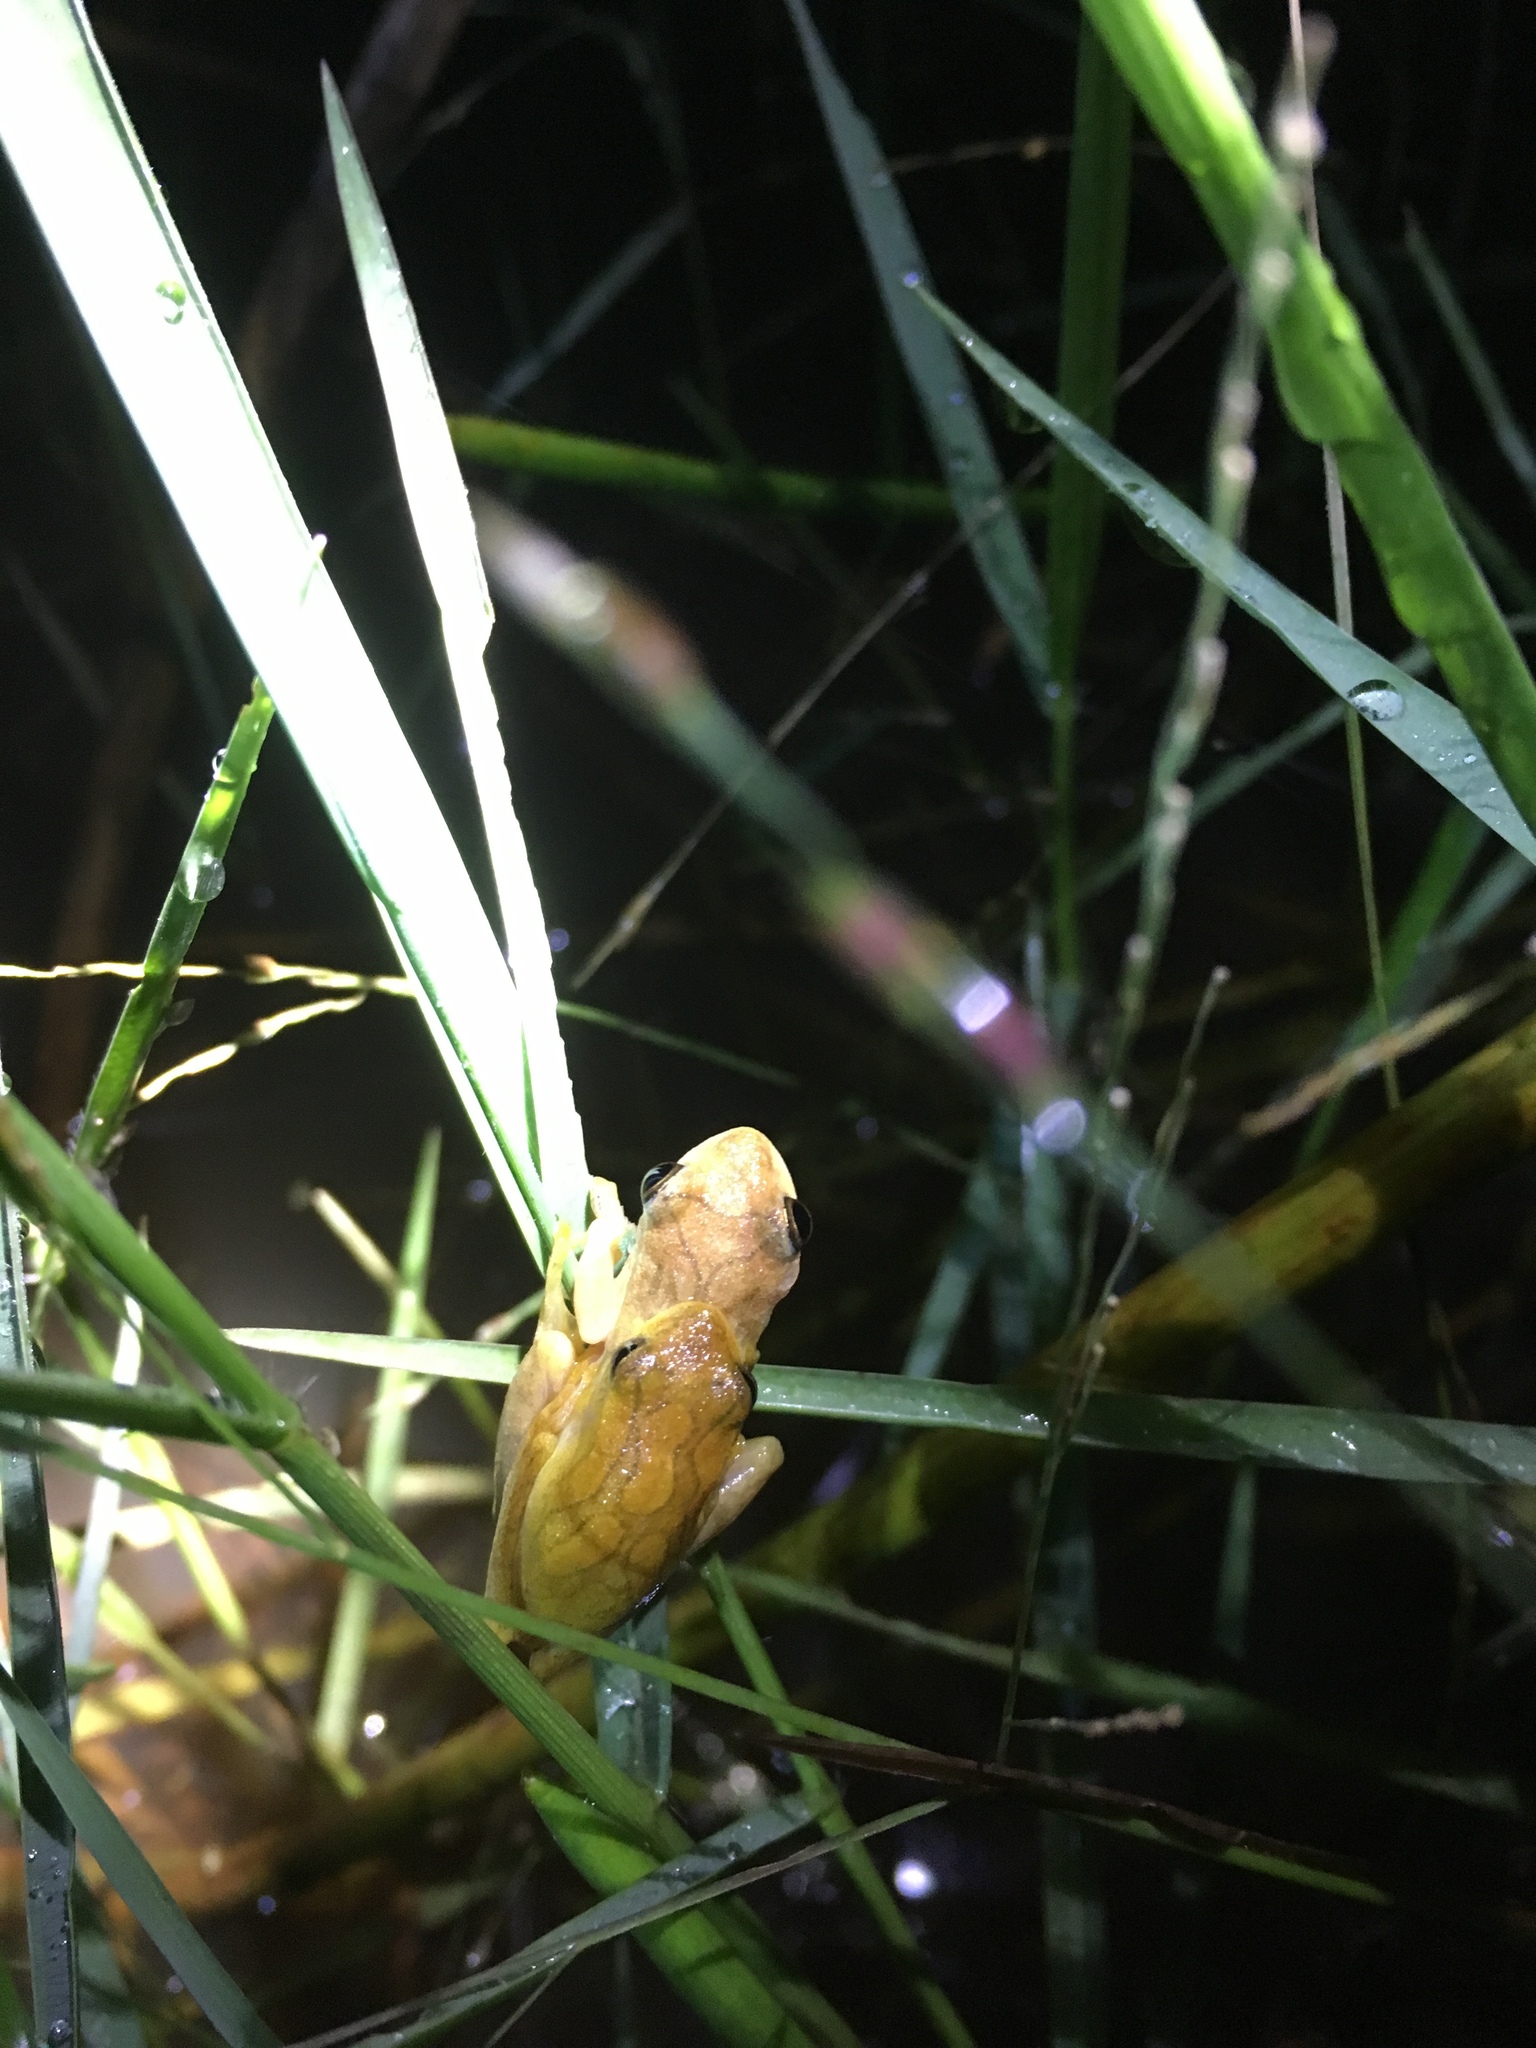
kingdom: Animalia
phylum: Chordata
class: Amphibia
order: Anura
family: Hylidae
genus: Dendropsophus
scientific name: Dendropsophus minutus
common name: Lesser treefrog
